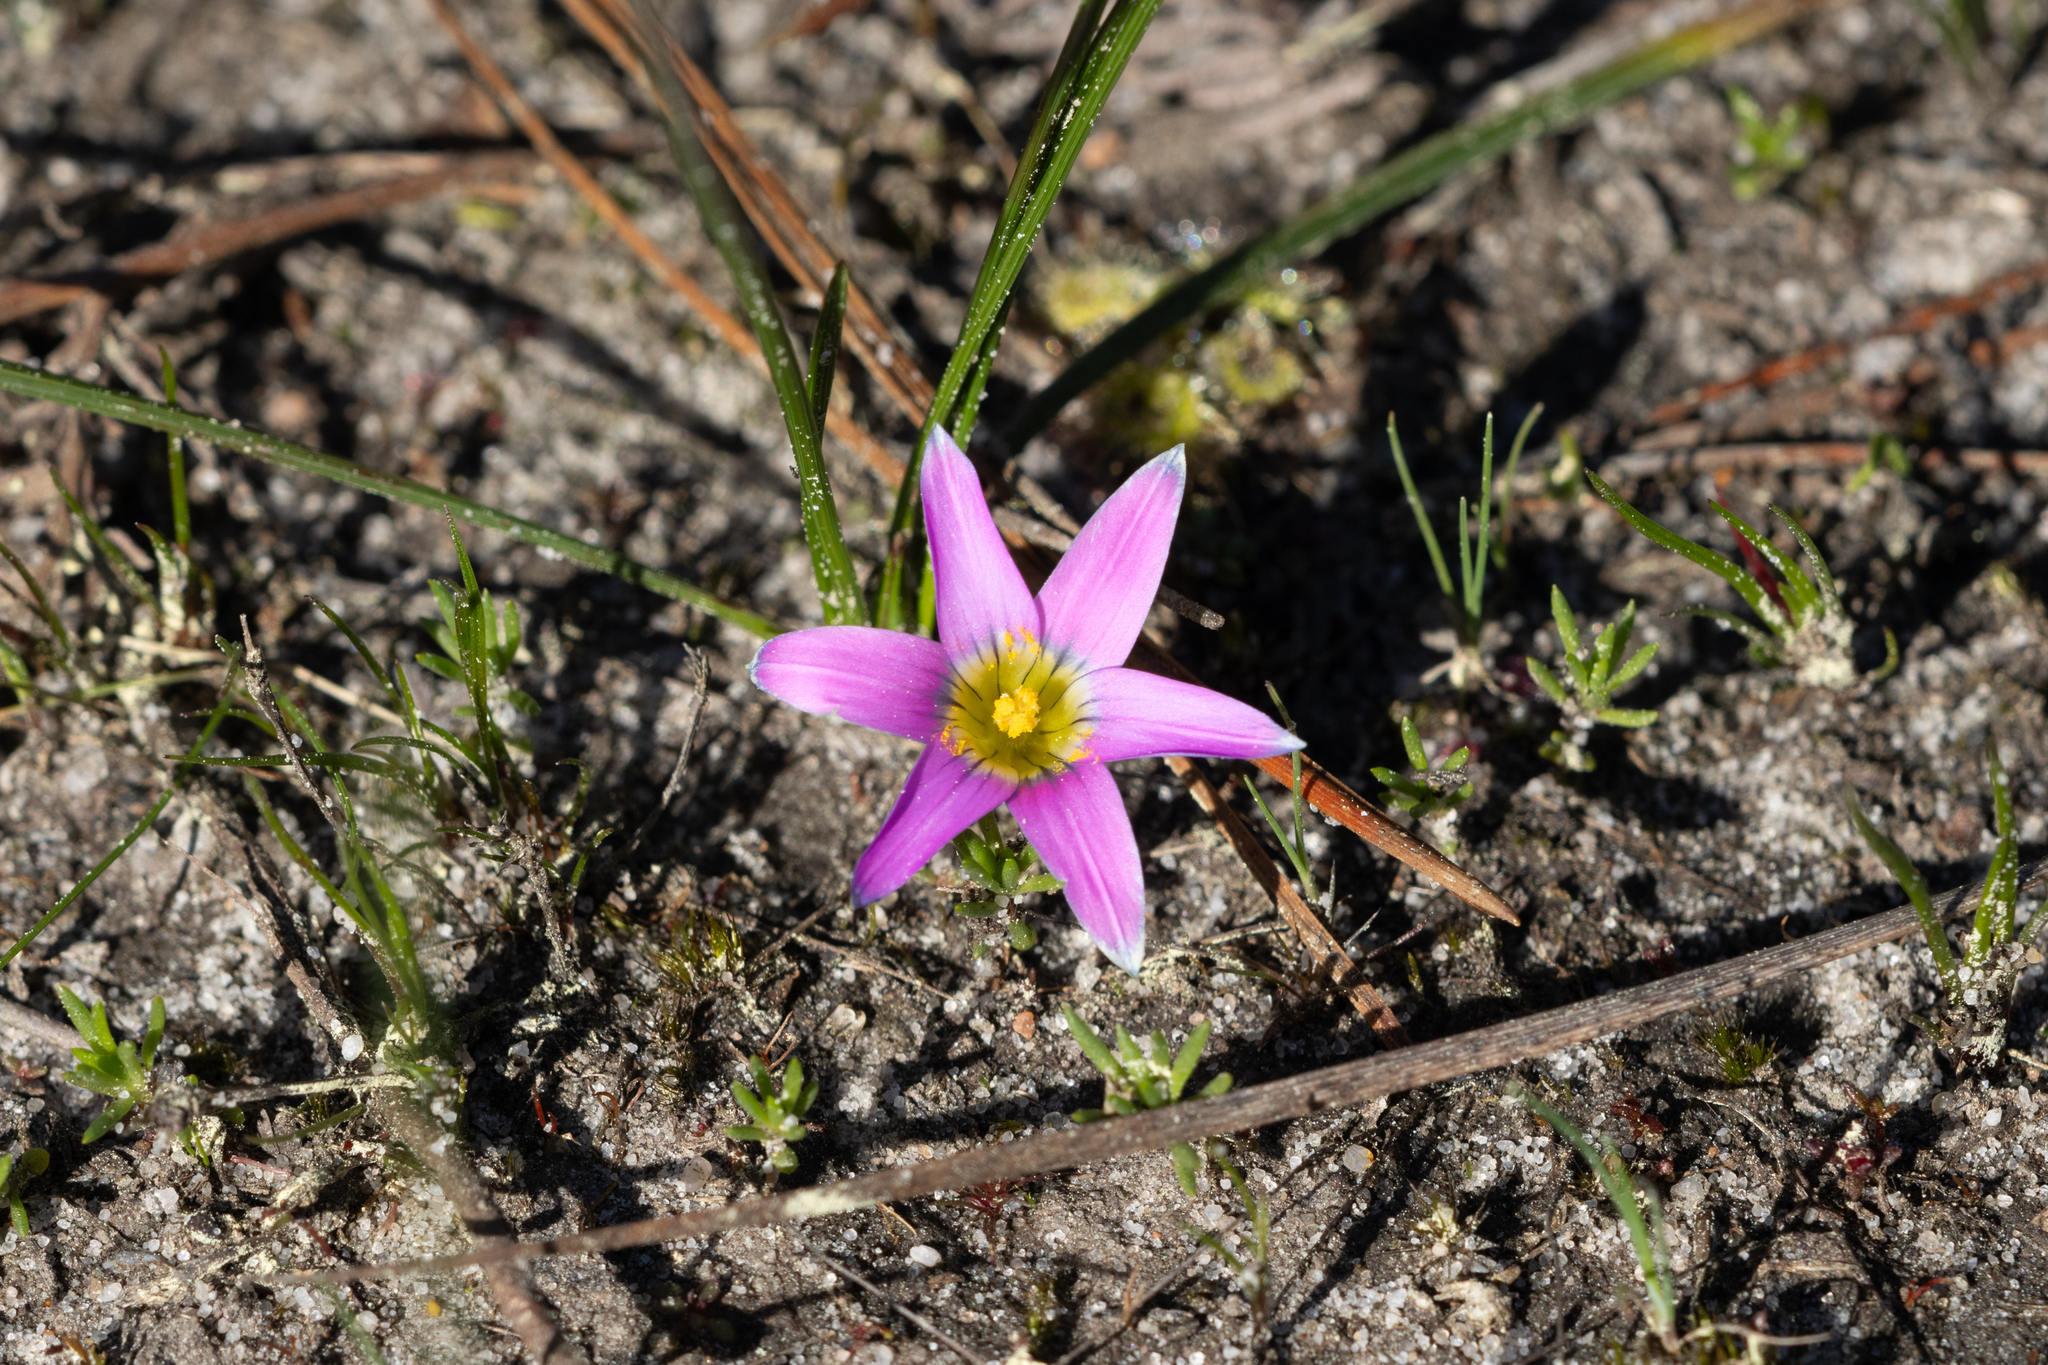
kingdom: Plantae
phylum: Tracheophyta
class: Liliopsida
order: Asparagales
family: Iridaceae
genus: Romulea
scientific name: Romulea rosea
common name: Oniongrass
